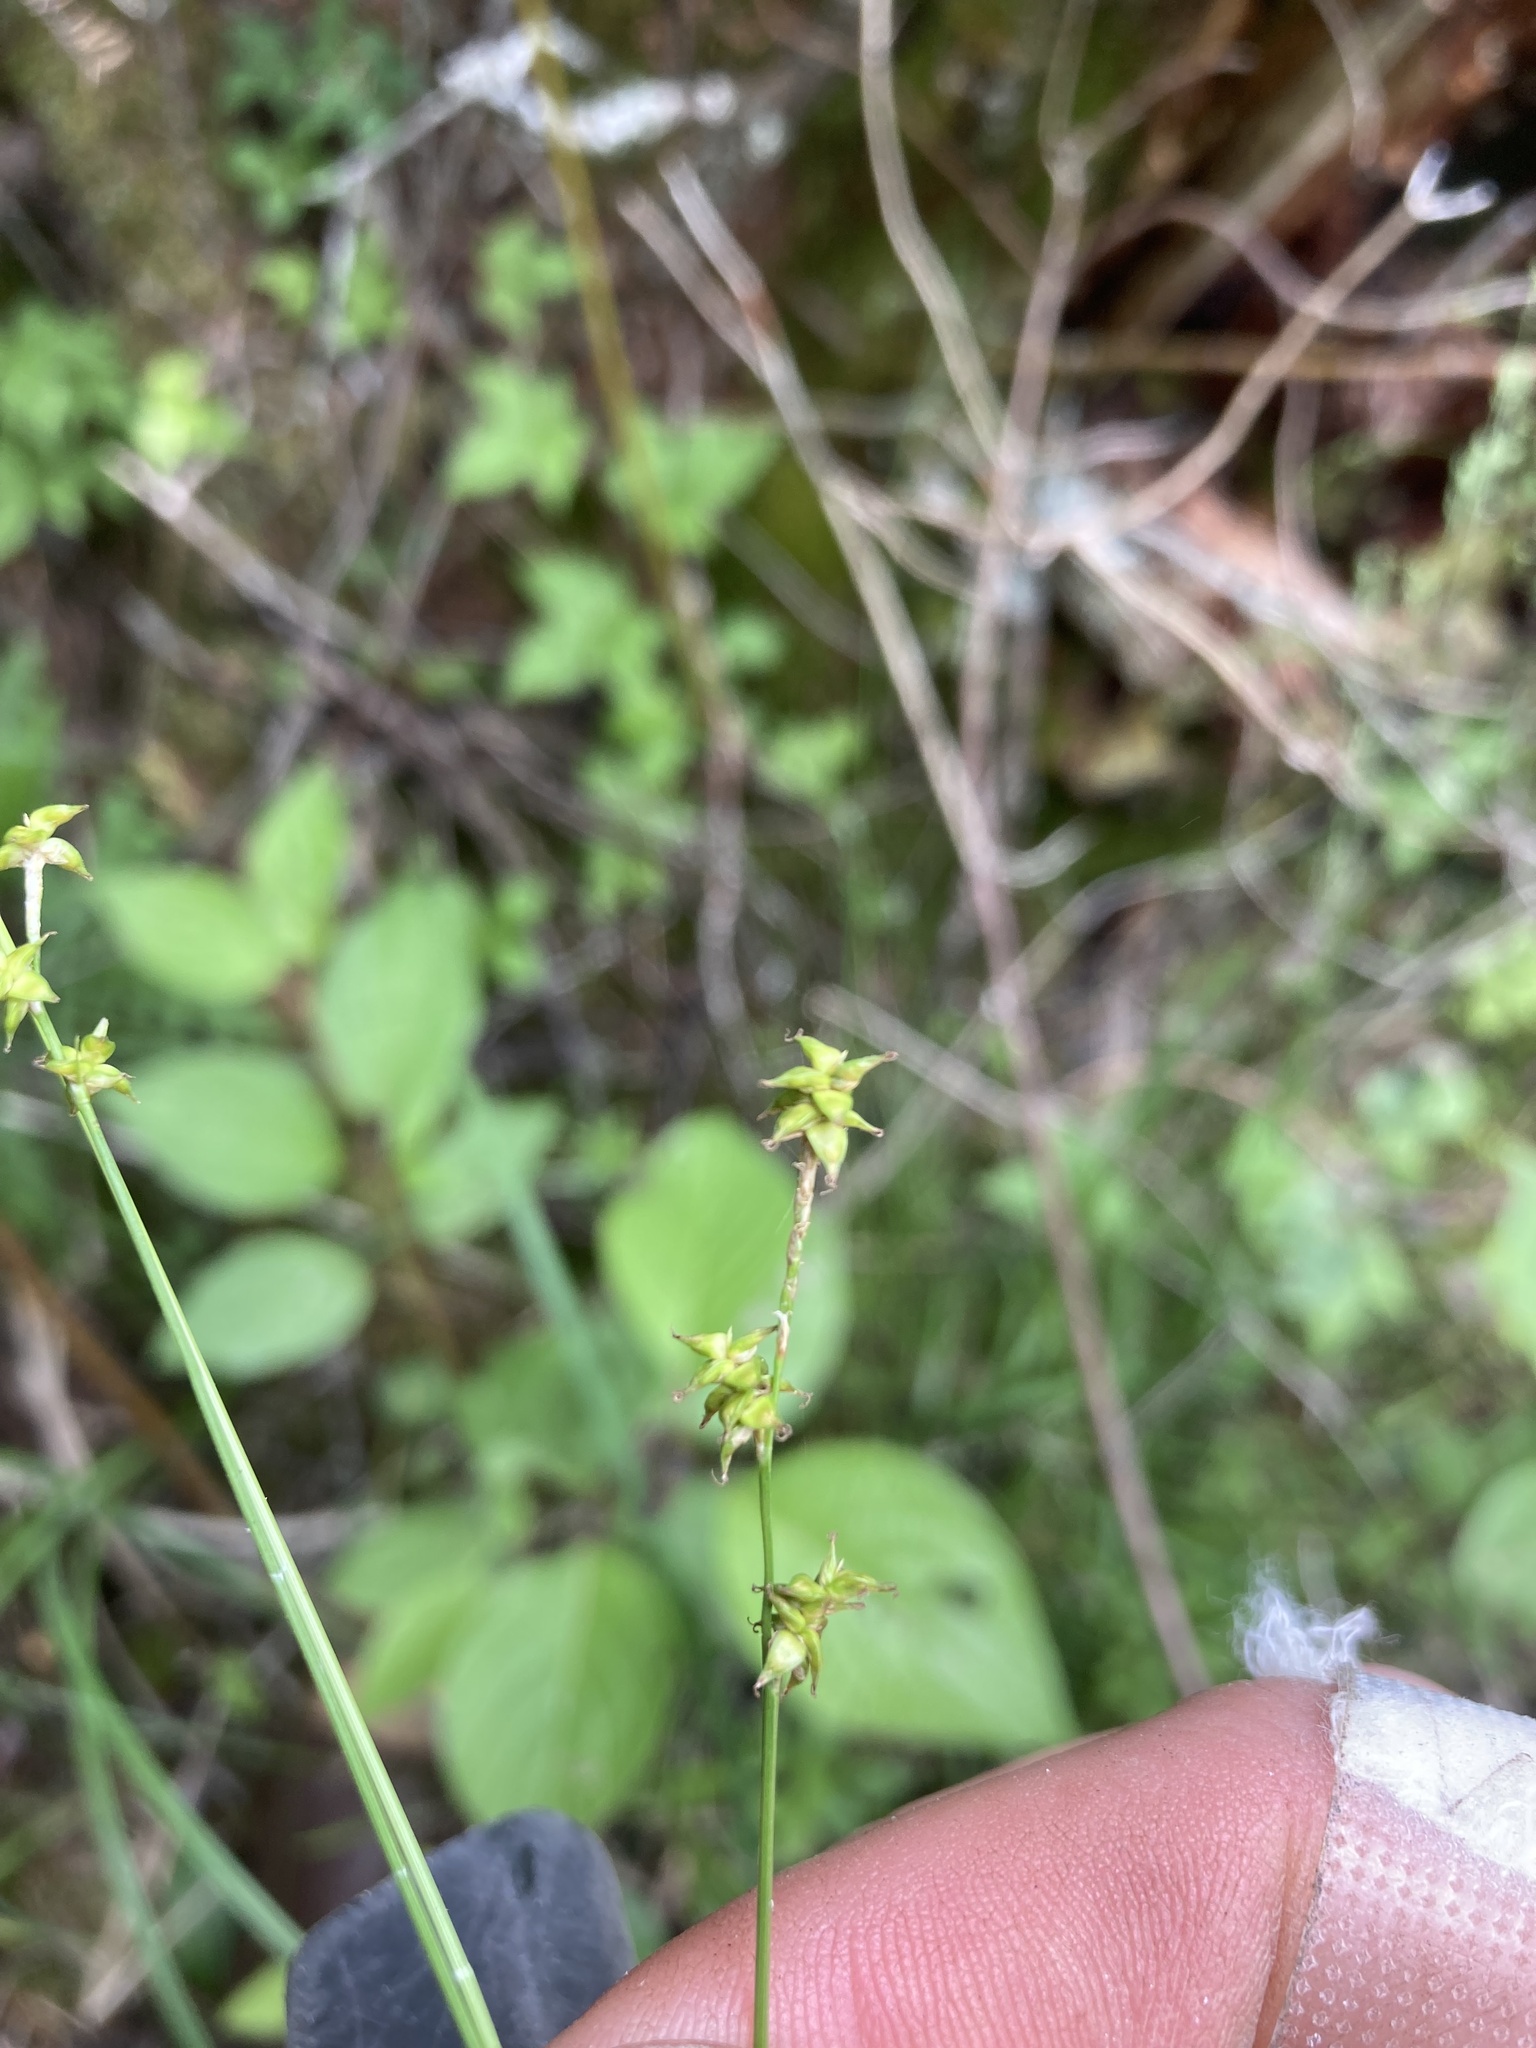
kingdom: Plantae
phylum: Tracheophyta
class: Liliopsida
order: Poales
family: Cyperaceae
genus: Carex
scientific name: Carex interior
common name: Inland sedge
